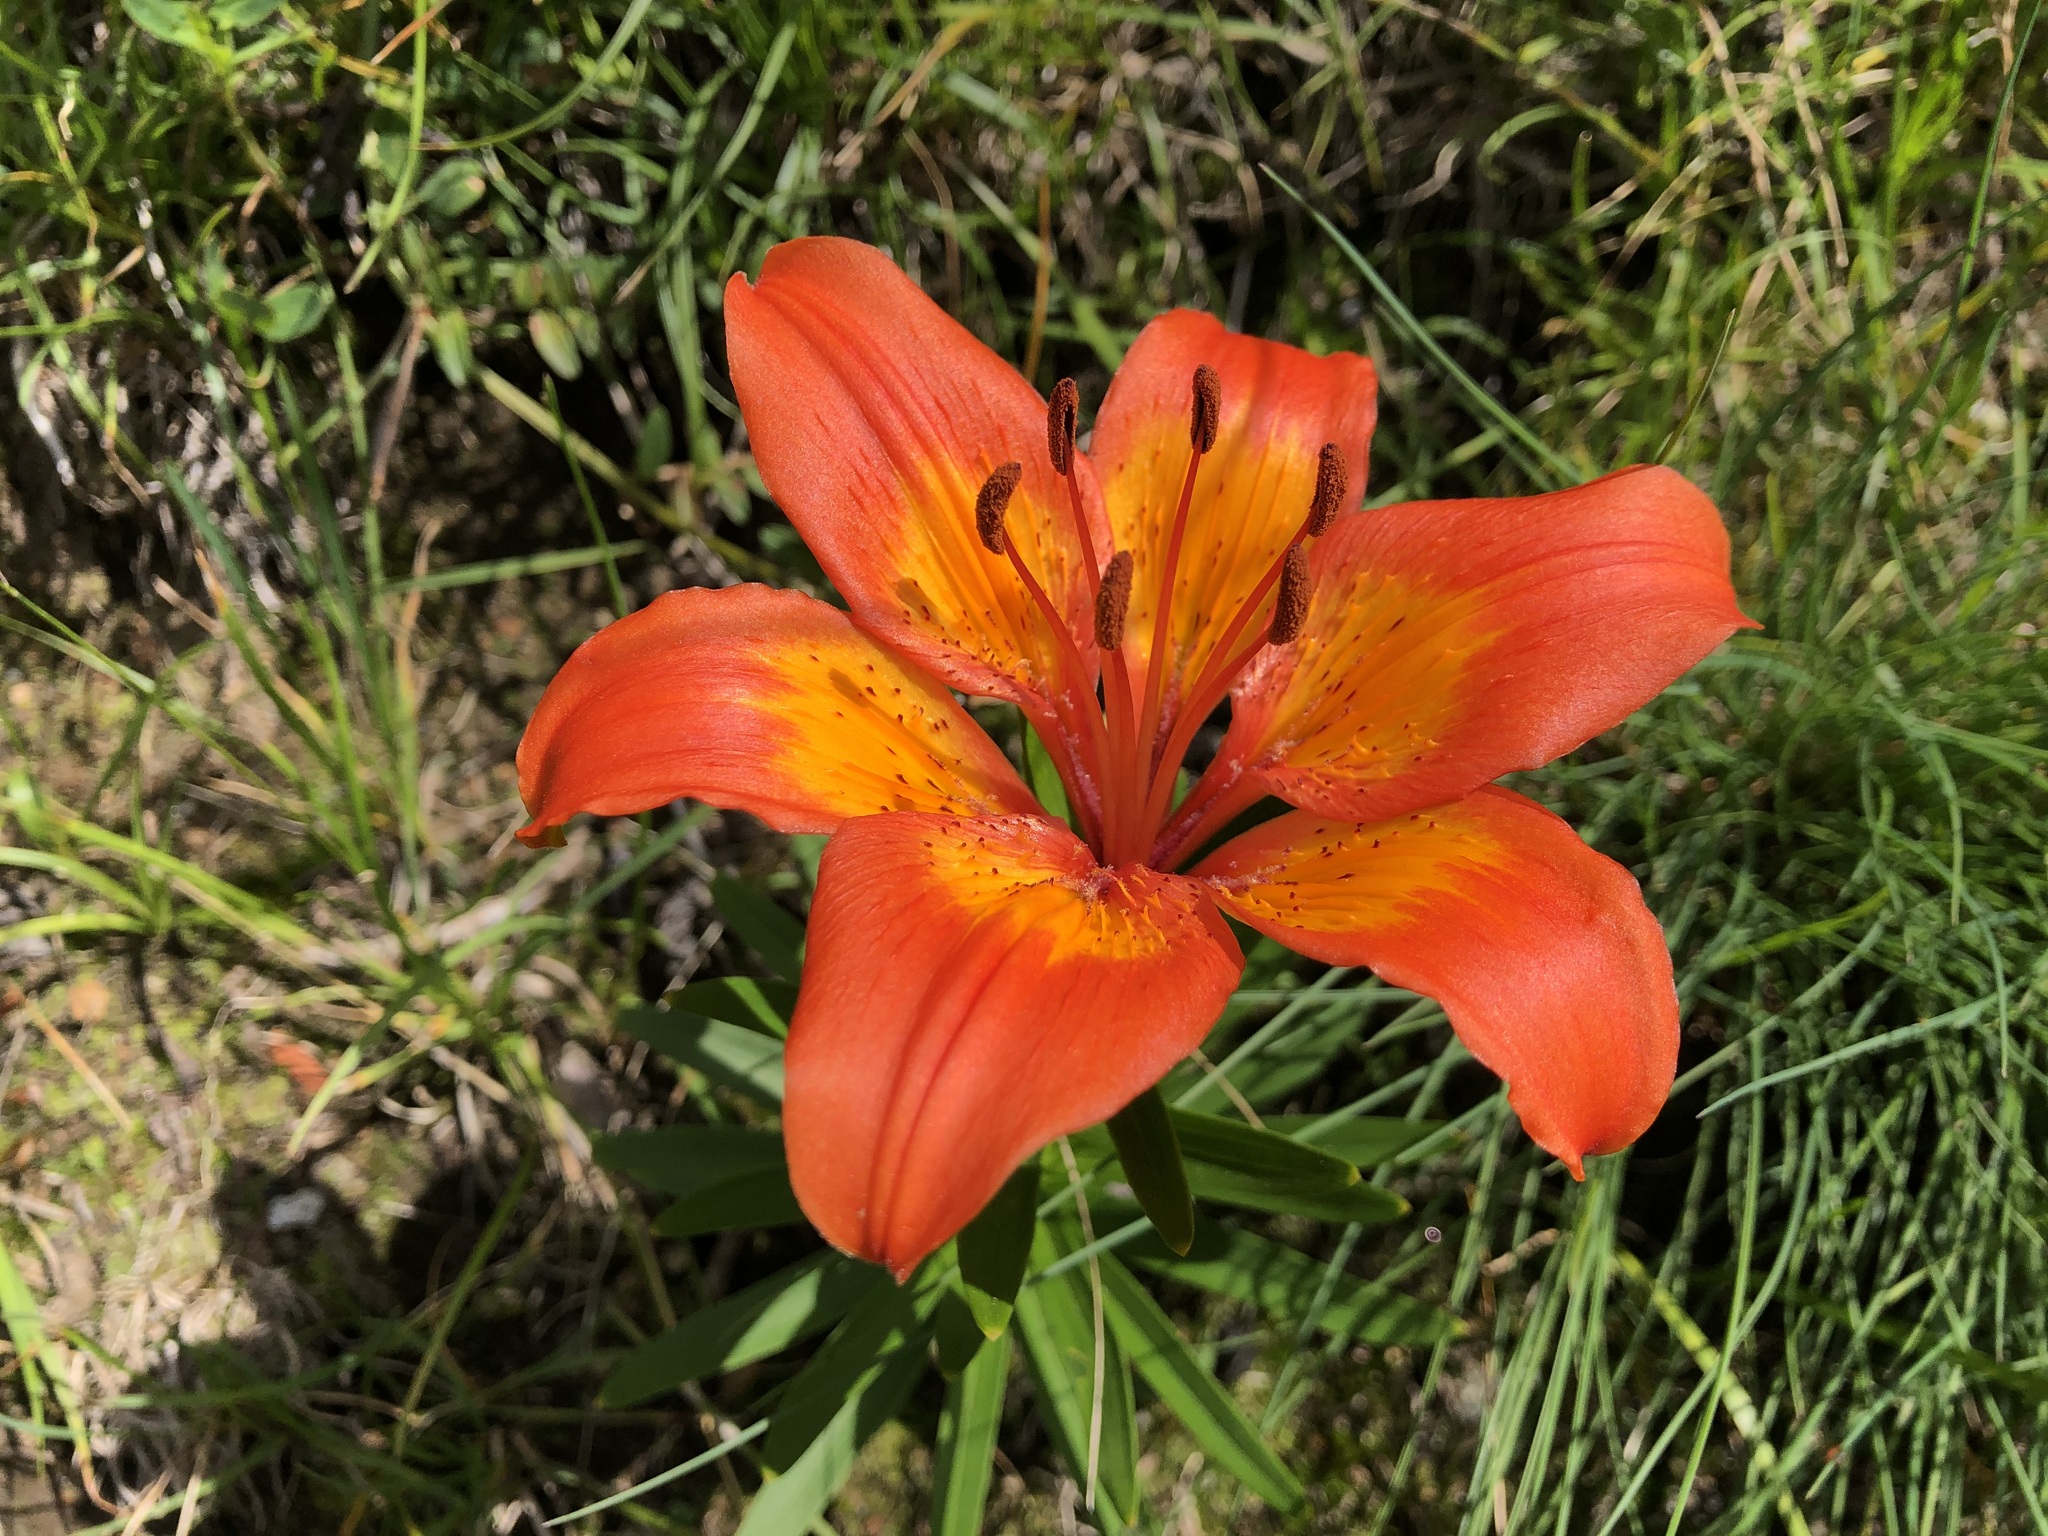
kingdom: Plantae
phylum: Tracheophyta
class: Liliopsida
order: Liliales
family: Liliaceae
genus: Lilium
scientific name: Lilium bulbiferum
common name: Orange lily
